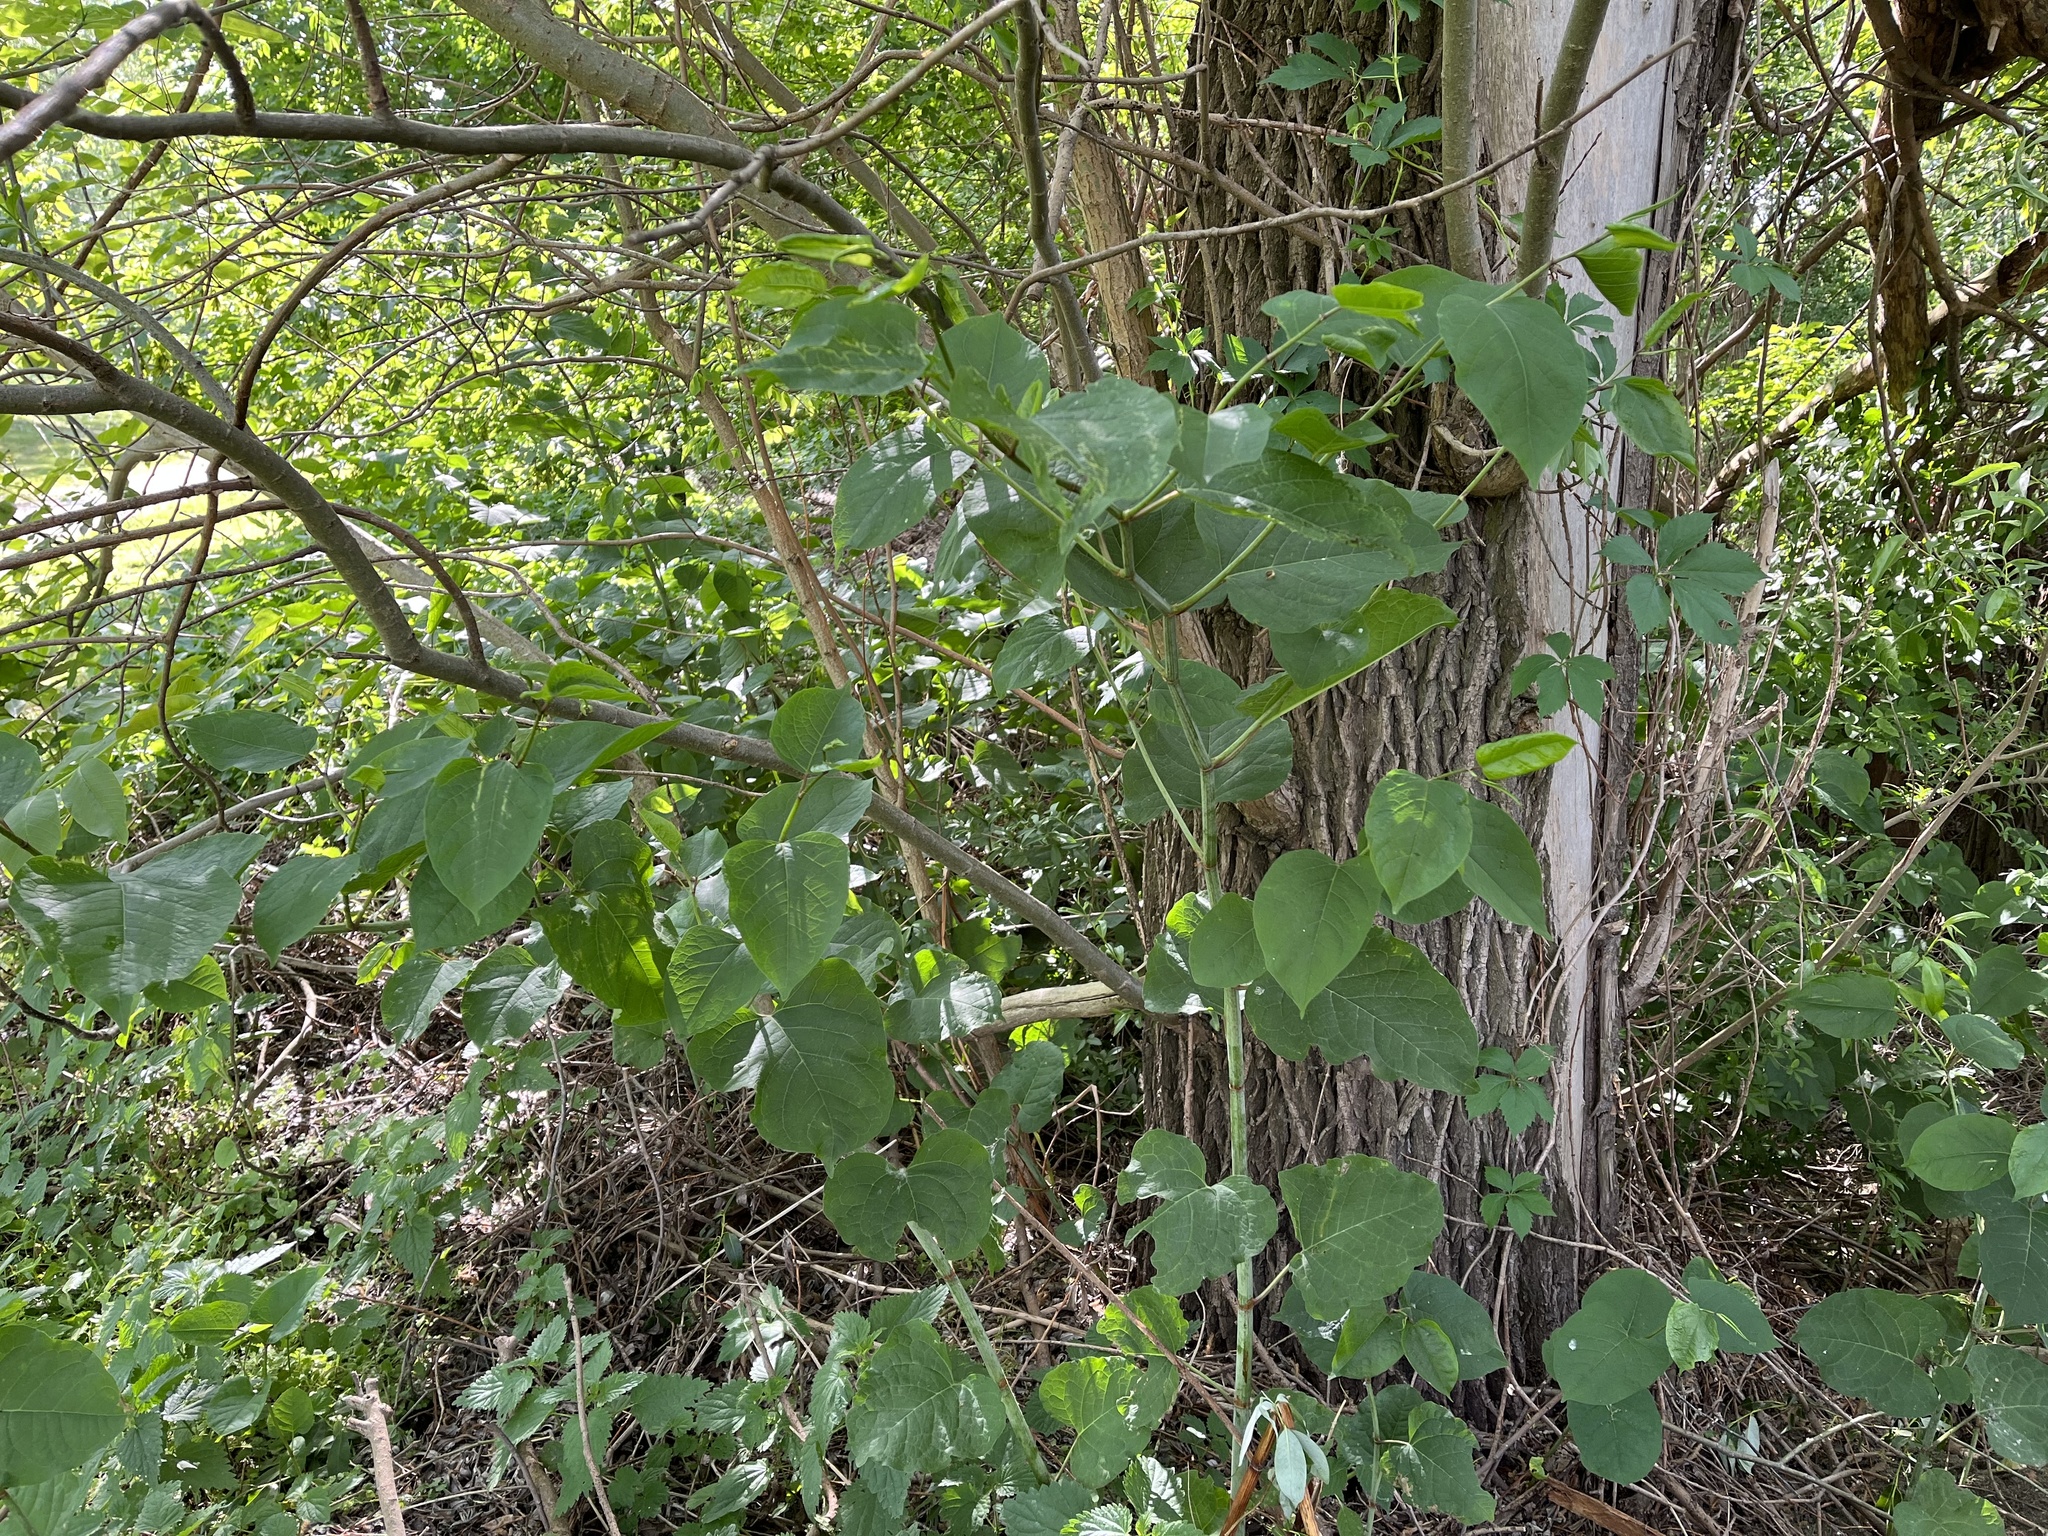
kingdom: Plantae
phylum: Tracheophyta
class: Magnoliopsida
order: Caryophyllales
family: Polygonaceae
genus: Reynoutria
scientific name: Reynoutria bohemica
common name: Bohemian knotweed
